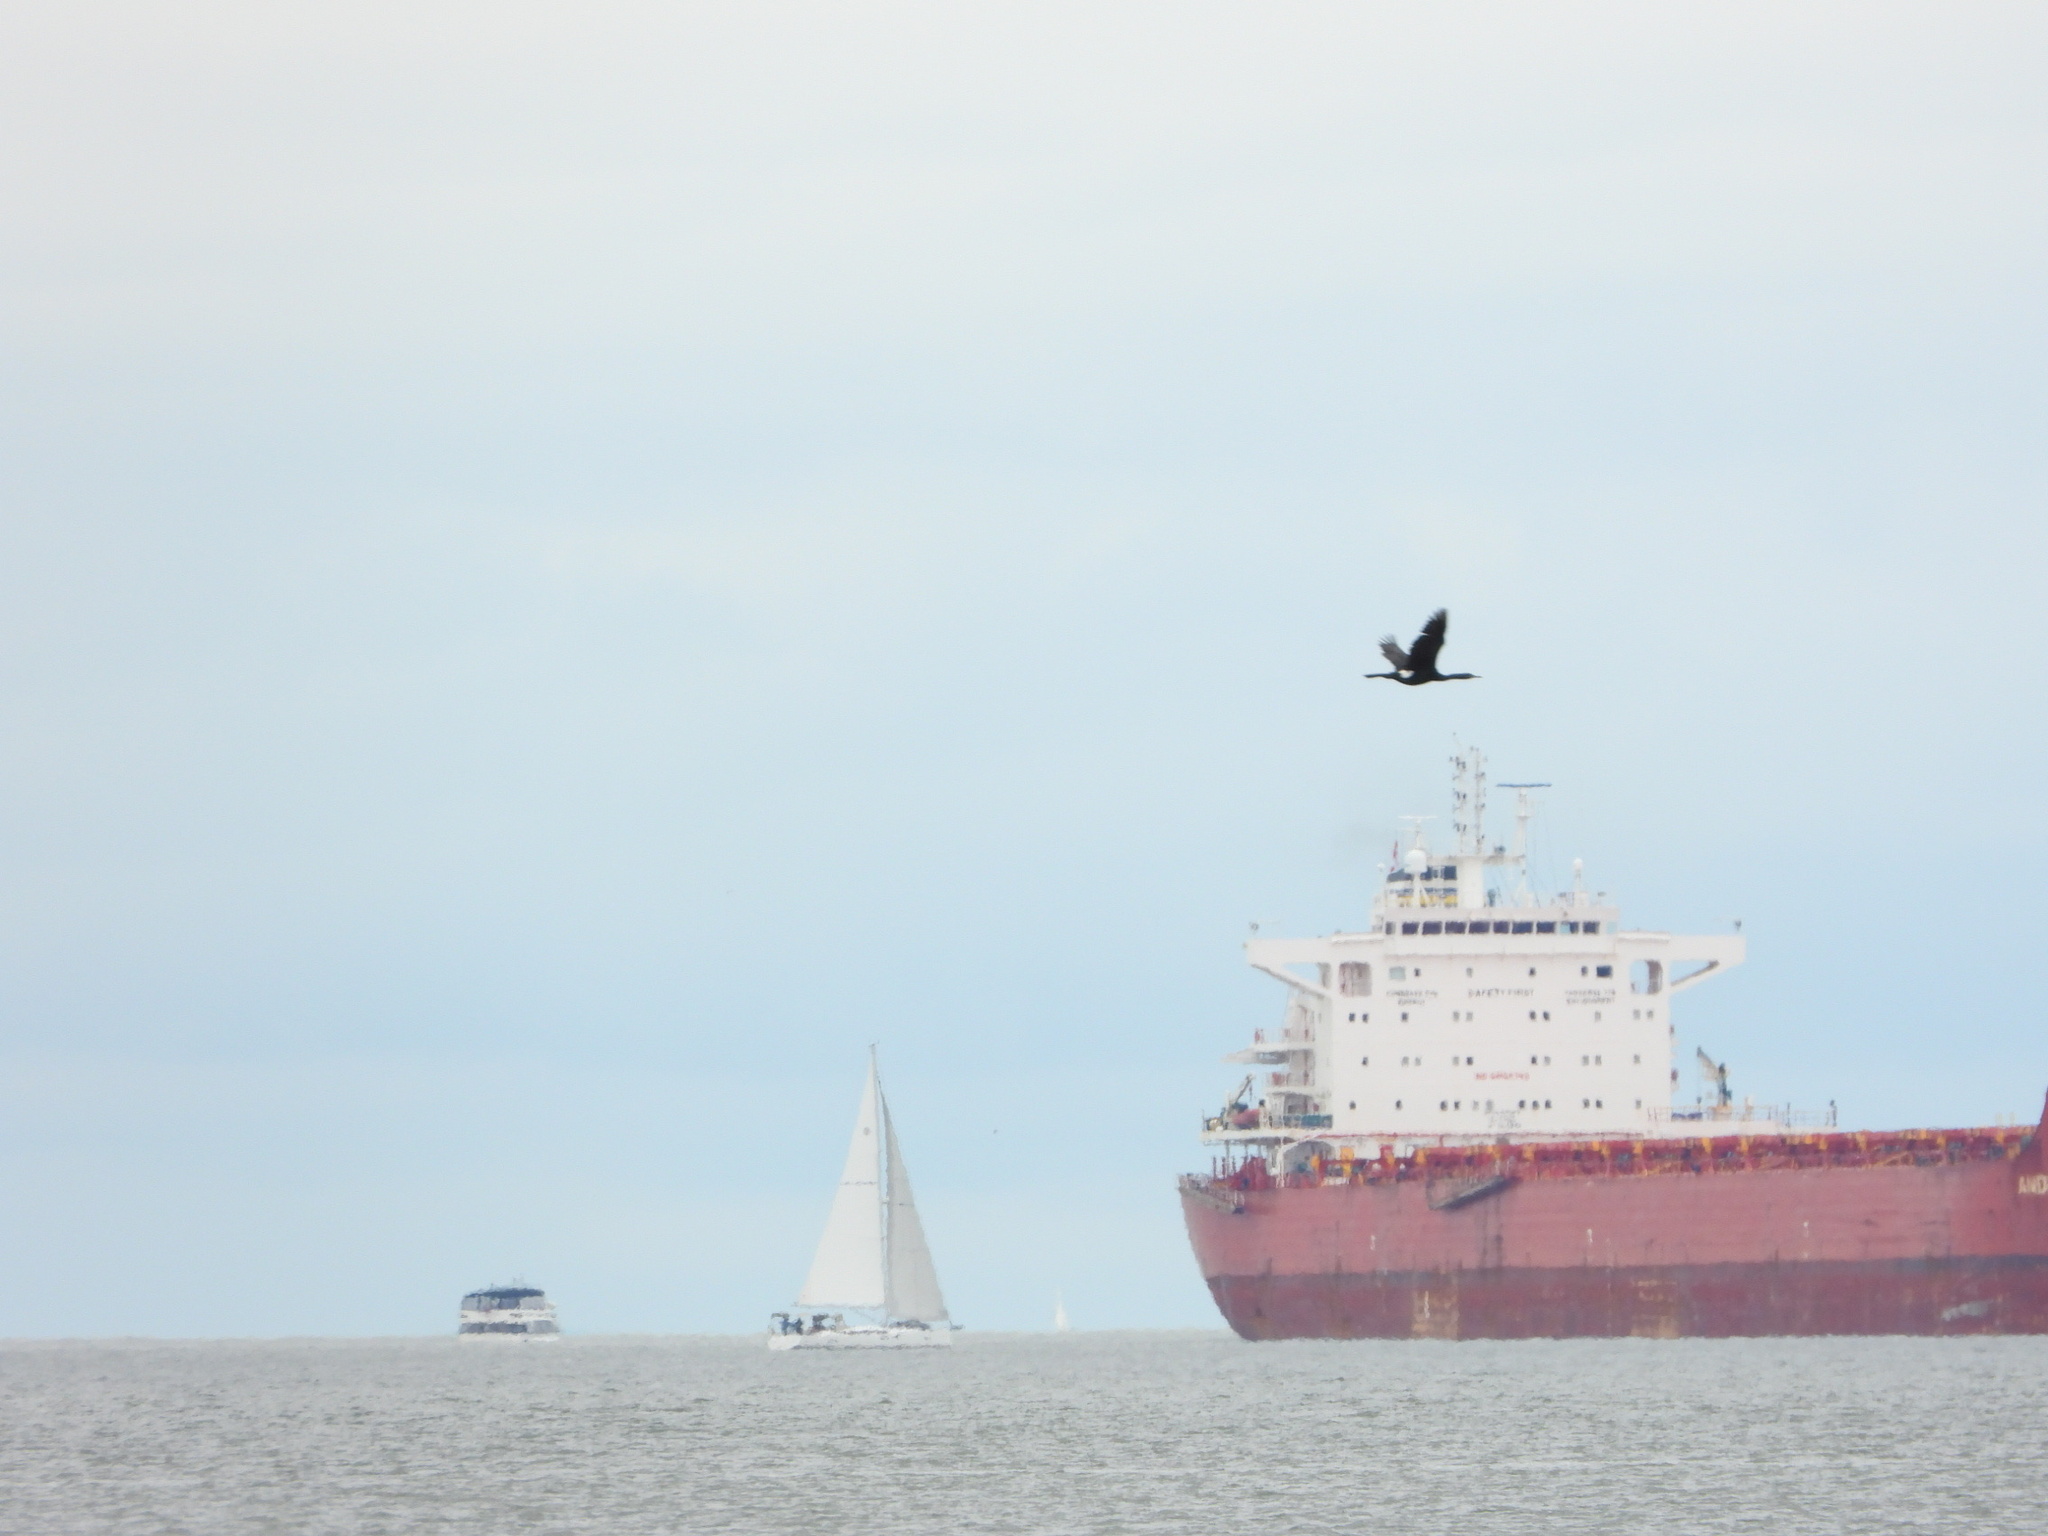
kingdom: Animalia
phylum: Chordata
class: Aves
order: Suliformes
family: Phalacrocoracidae
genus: Phalacrocorax
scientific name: Phalacrocorax pelagicus
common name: Pelagic cormorant
